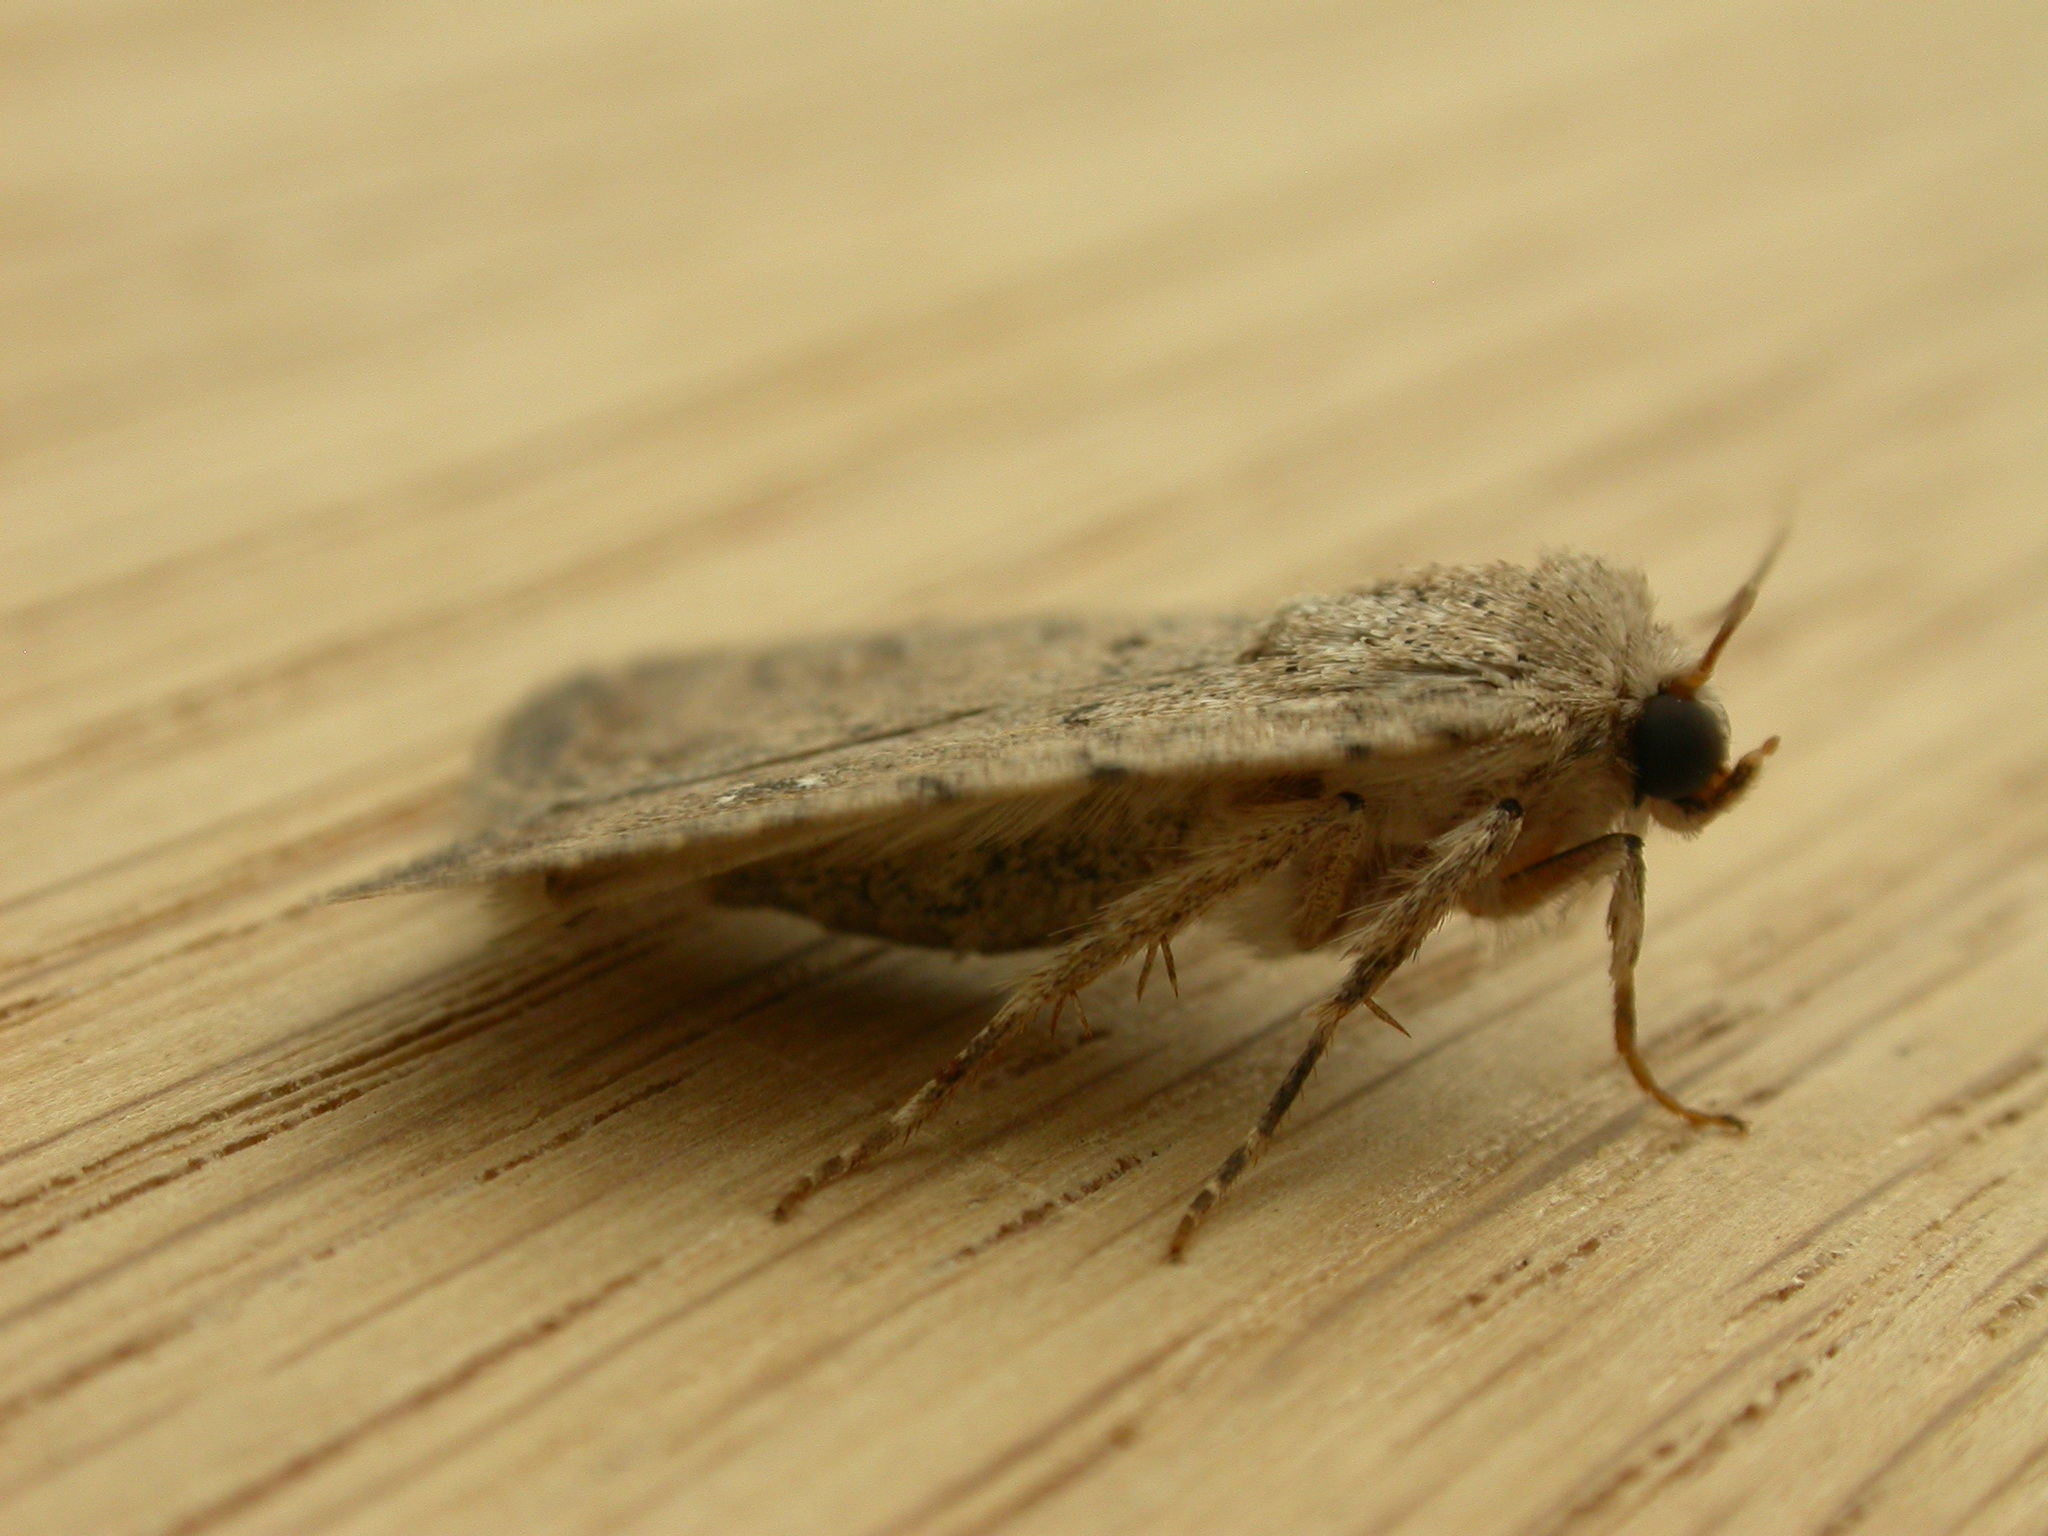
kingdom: Animalia
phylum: Arthropoda
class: Insecta
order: Lepidoptera
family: Noctuidae
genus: Caradrina
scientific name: Caradrina clavipalpis
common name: Pale mottled willow
